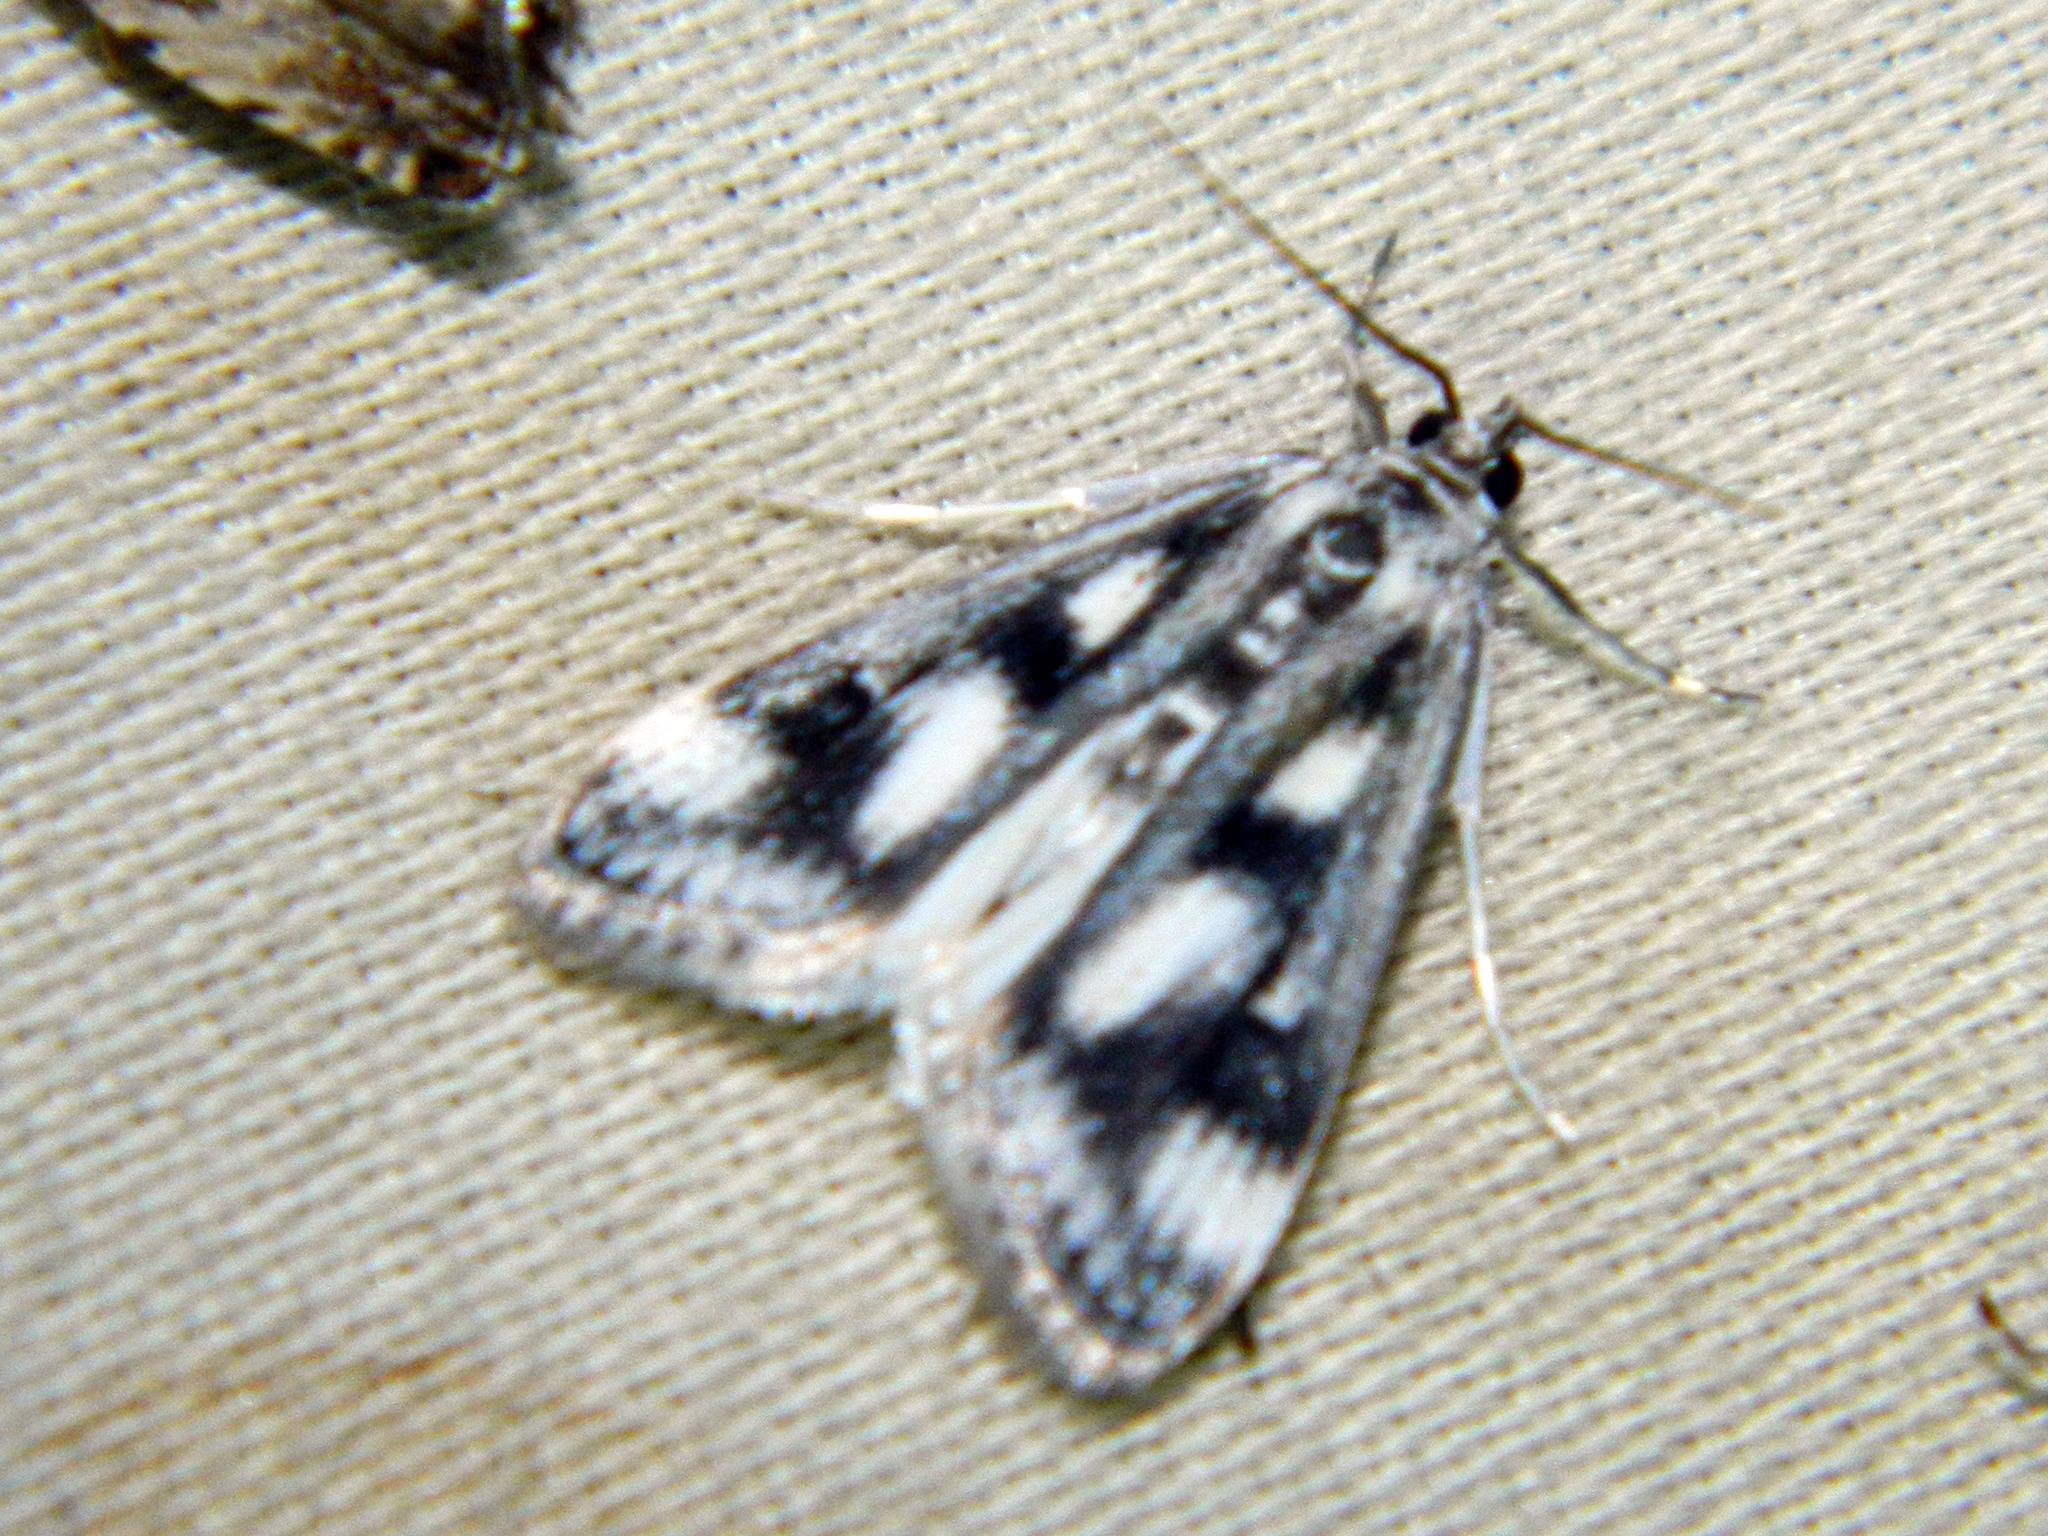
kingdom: Animalia
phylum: Arthropoda
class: Insecta
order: Lepidoptera
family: Crambidae
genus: Parapoynx
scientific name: Parapoynx maculalis
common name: Polymorphic pondweed moth
